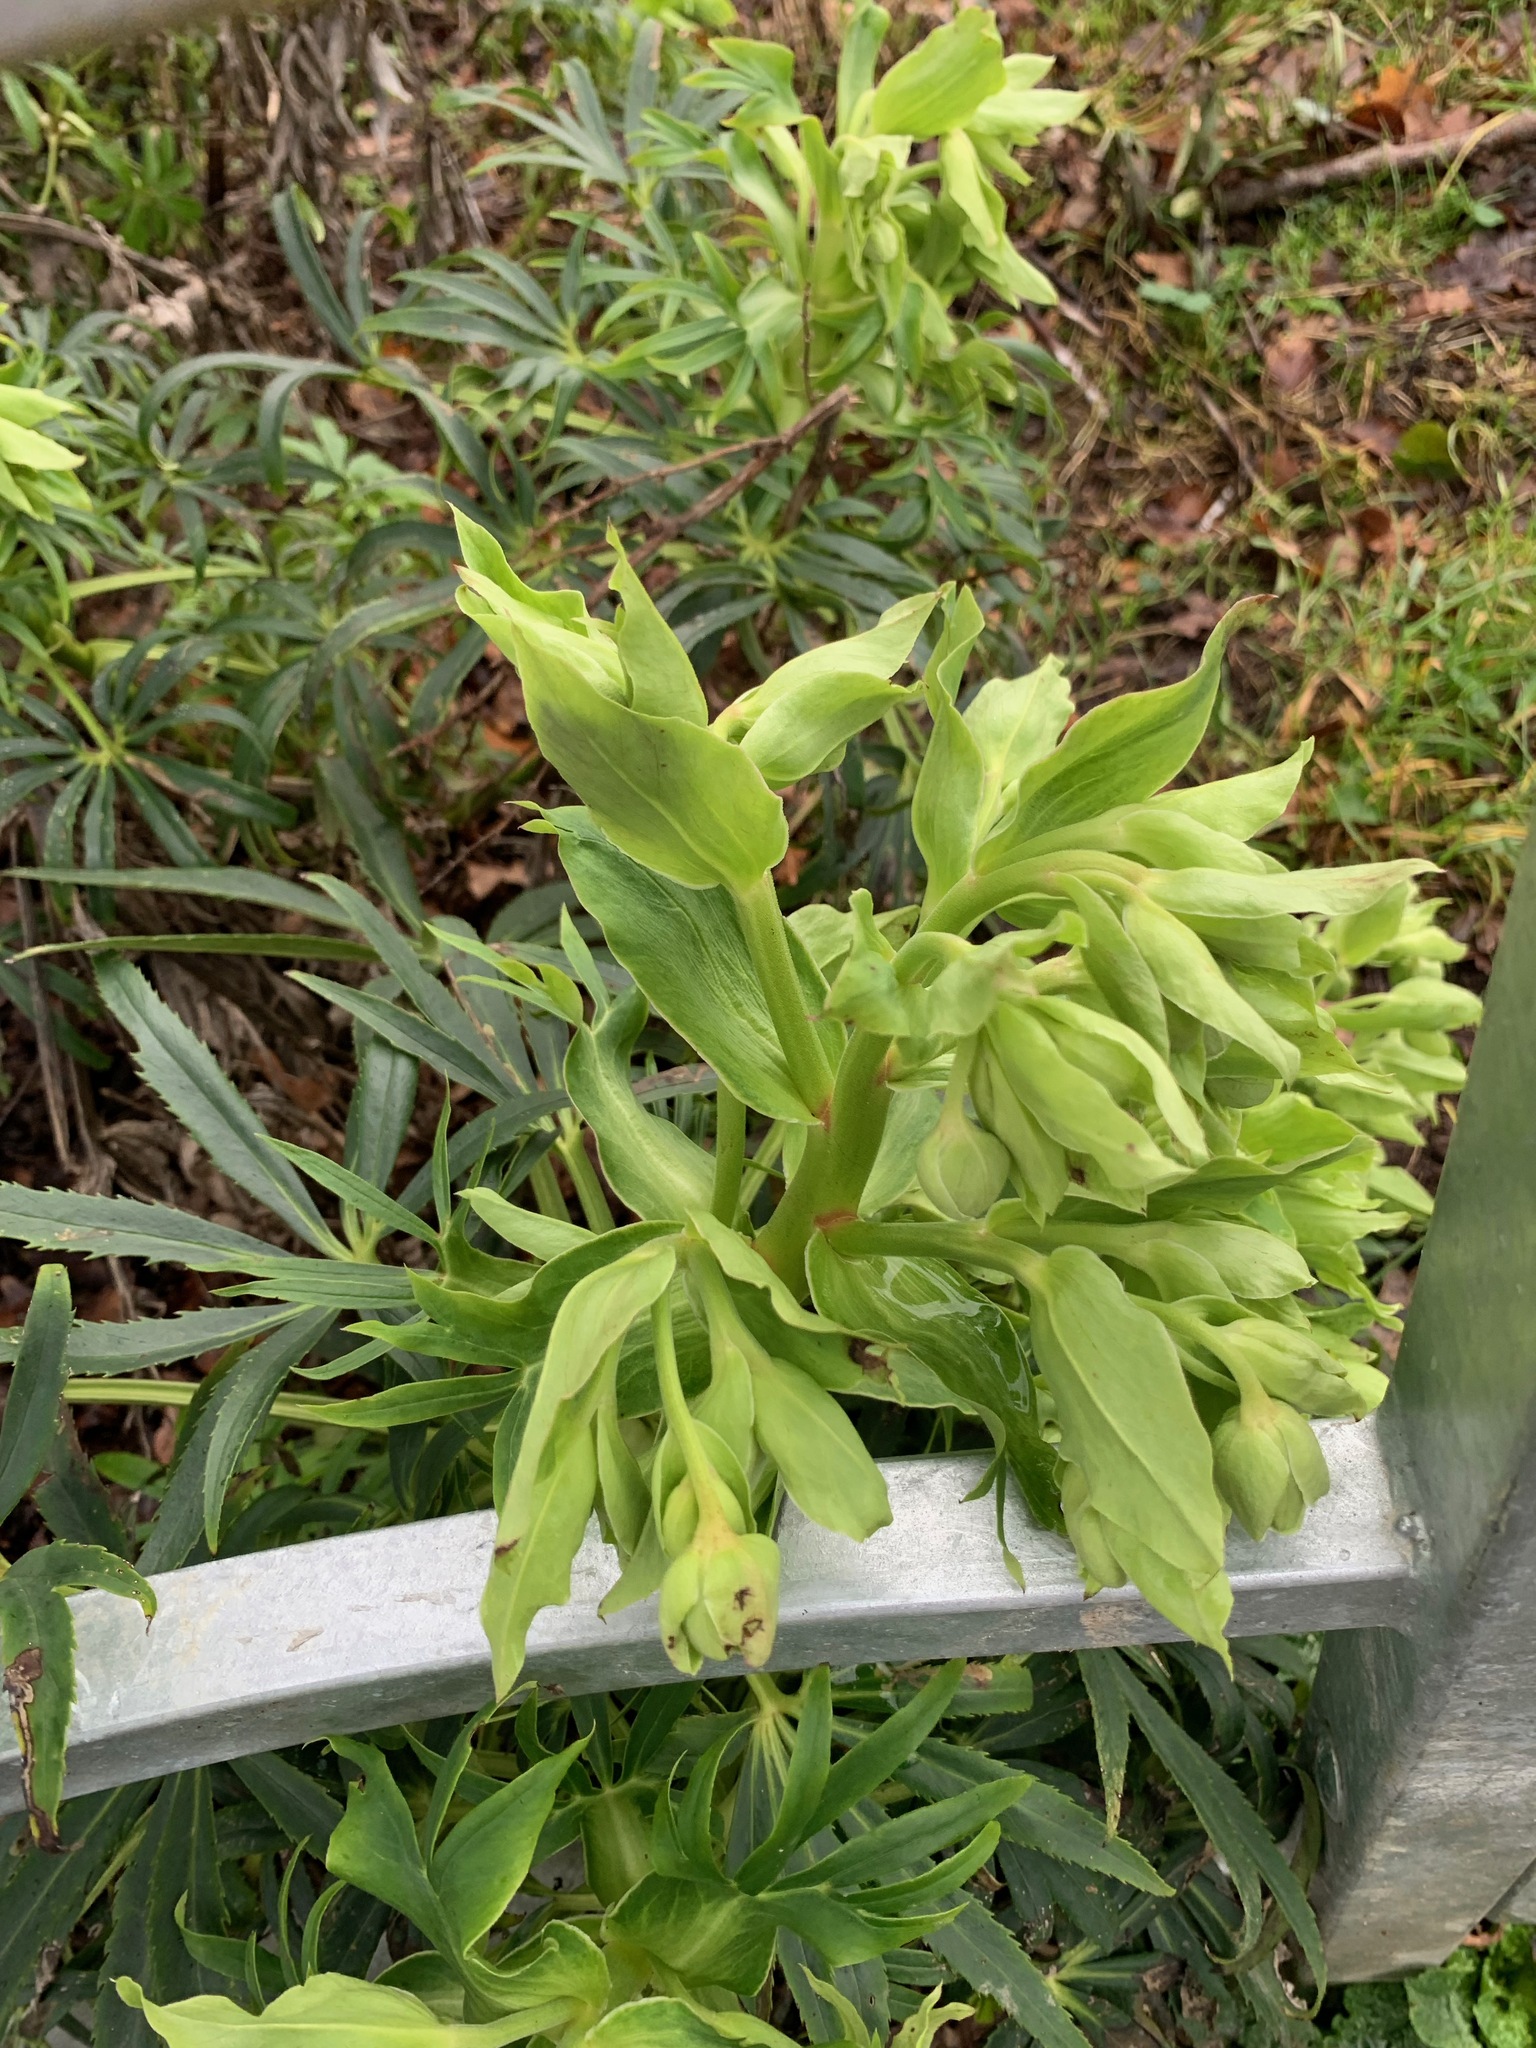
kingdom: Plantae
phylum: Tracheophyta
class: Magnoliopsida
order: Ranunculales
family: Ranunculaceae
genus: Helleborus
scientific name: Helleborus foetidus
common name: Stinking hellebore
